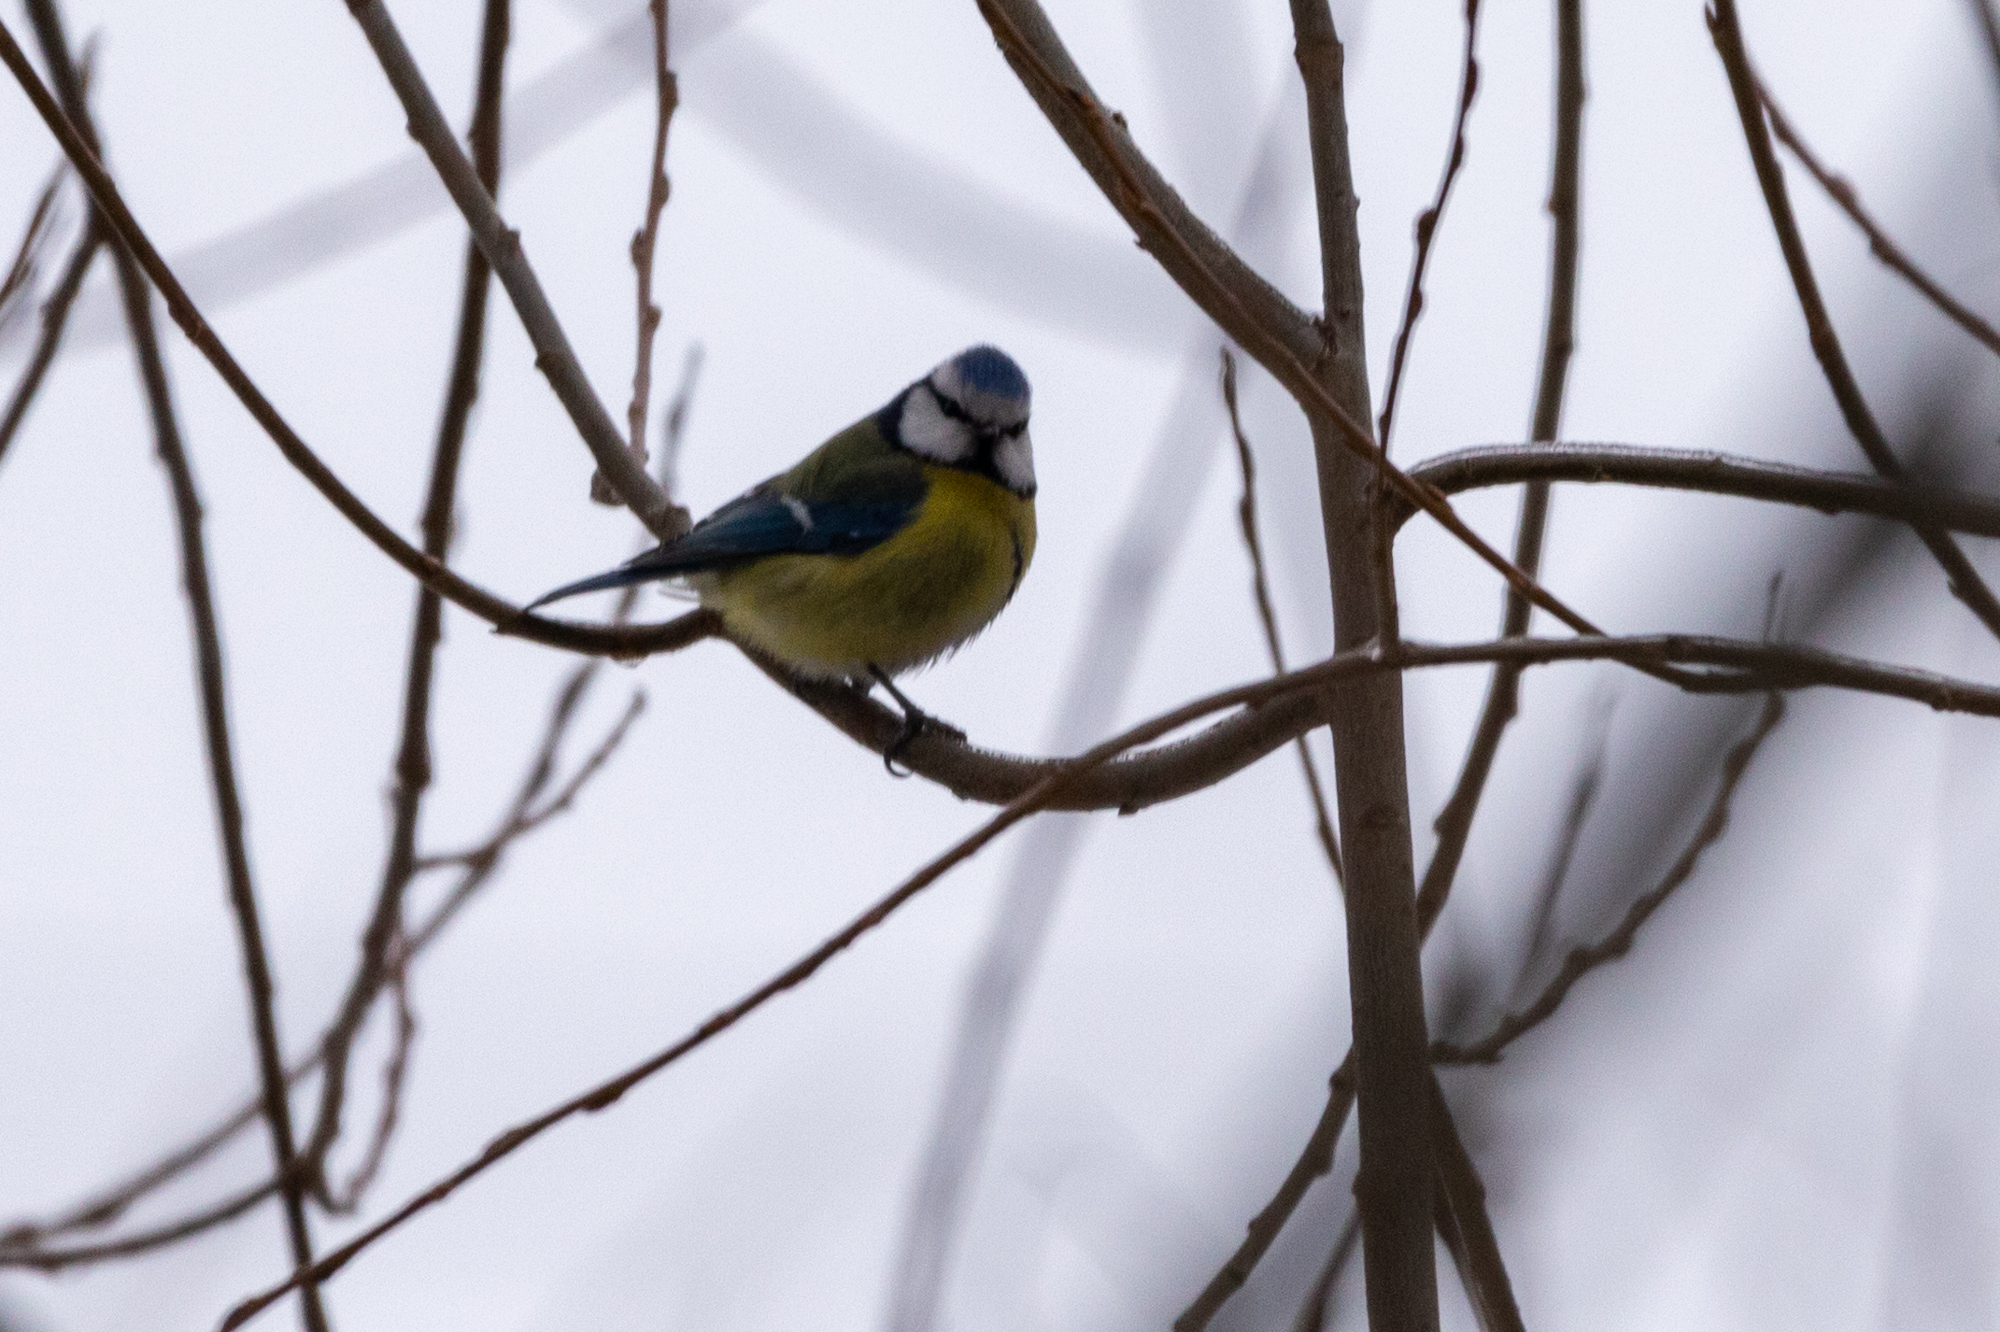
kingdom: Animalia
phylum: Chordata
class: Aves
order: Passeriformes
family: Paridae
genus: Cyanistes
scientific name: Cyanistes caeruleus
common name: Eurasian blue tit
